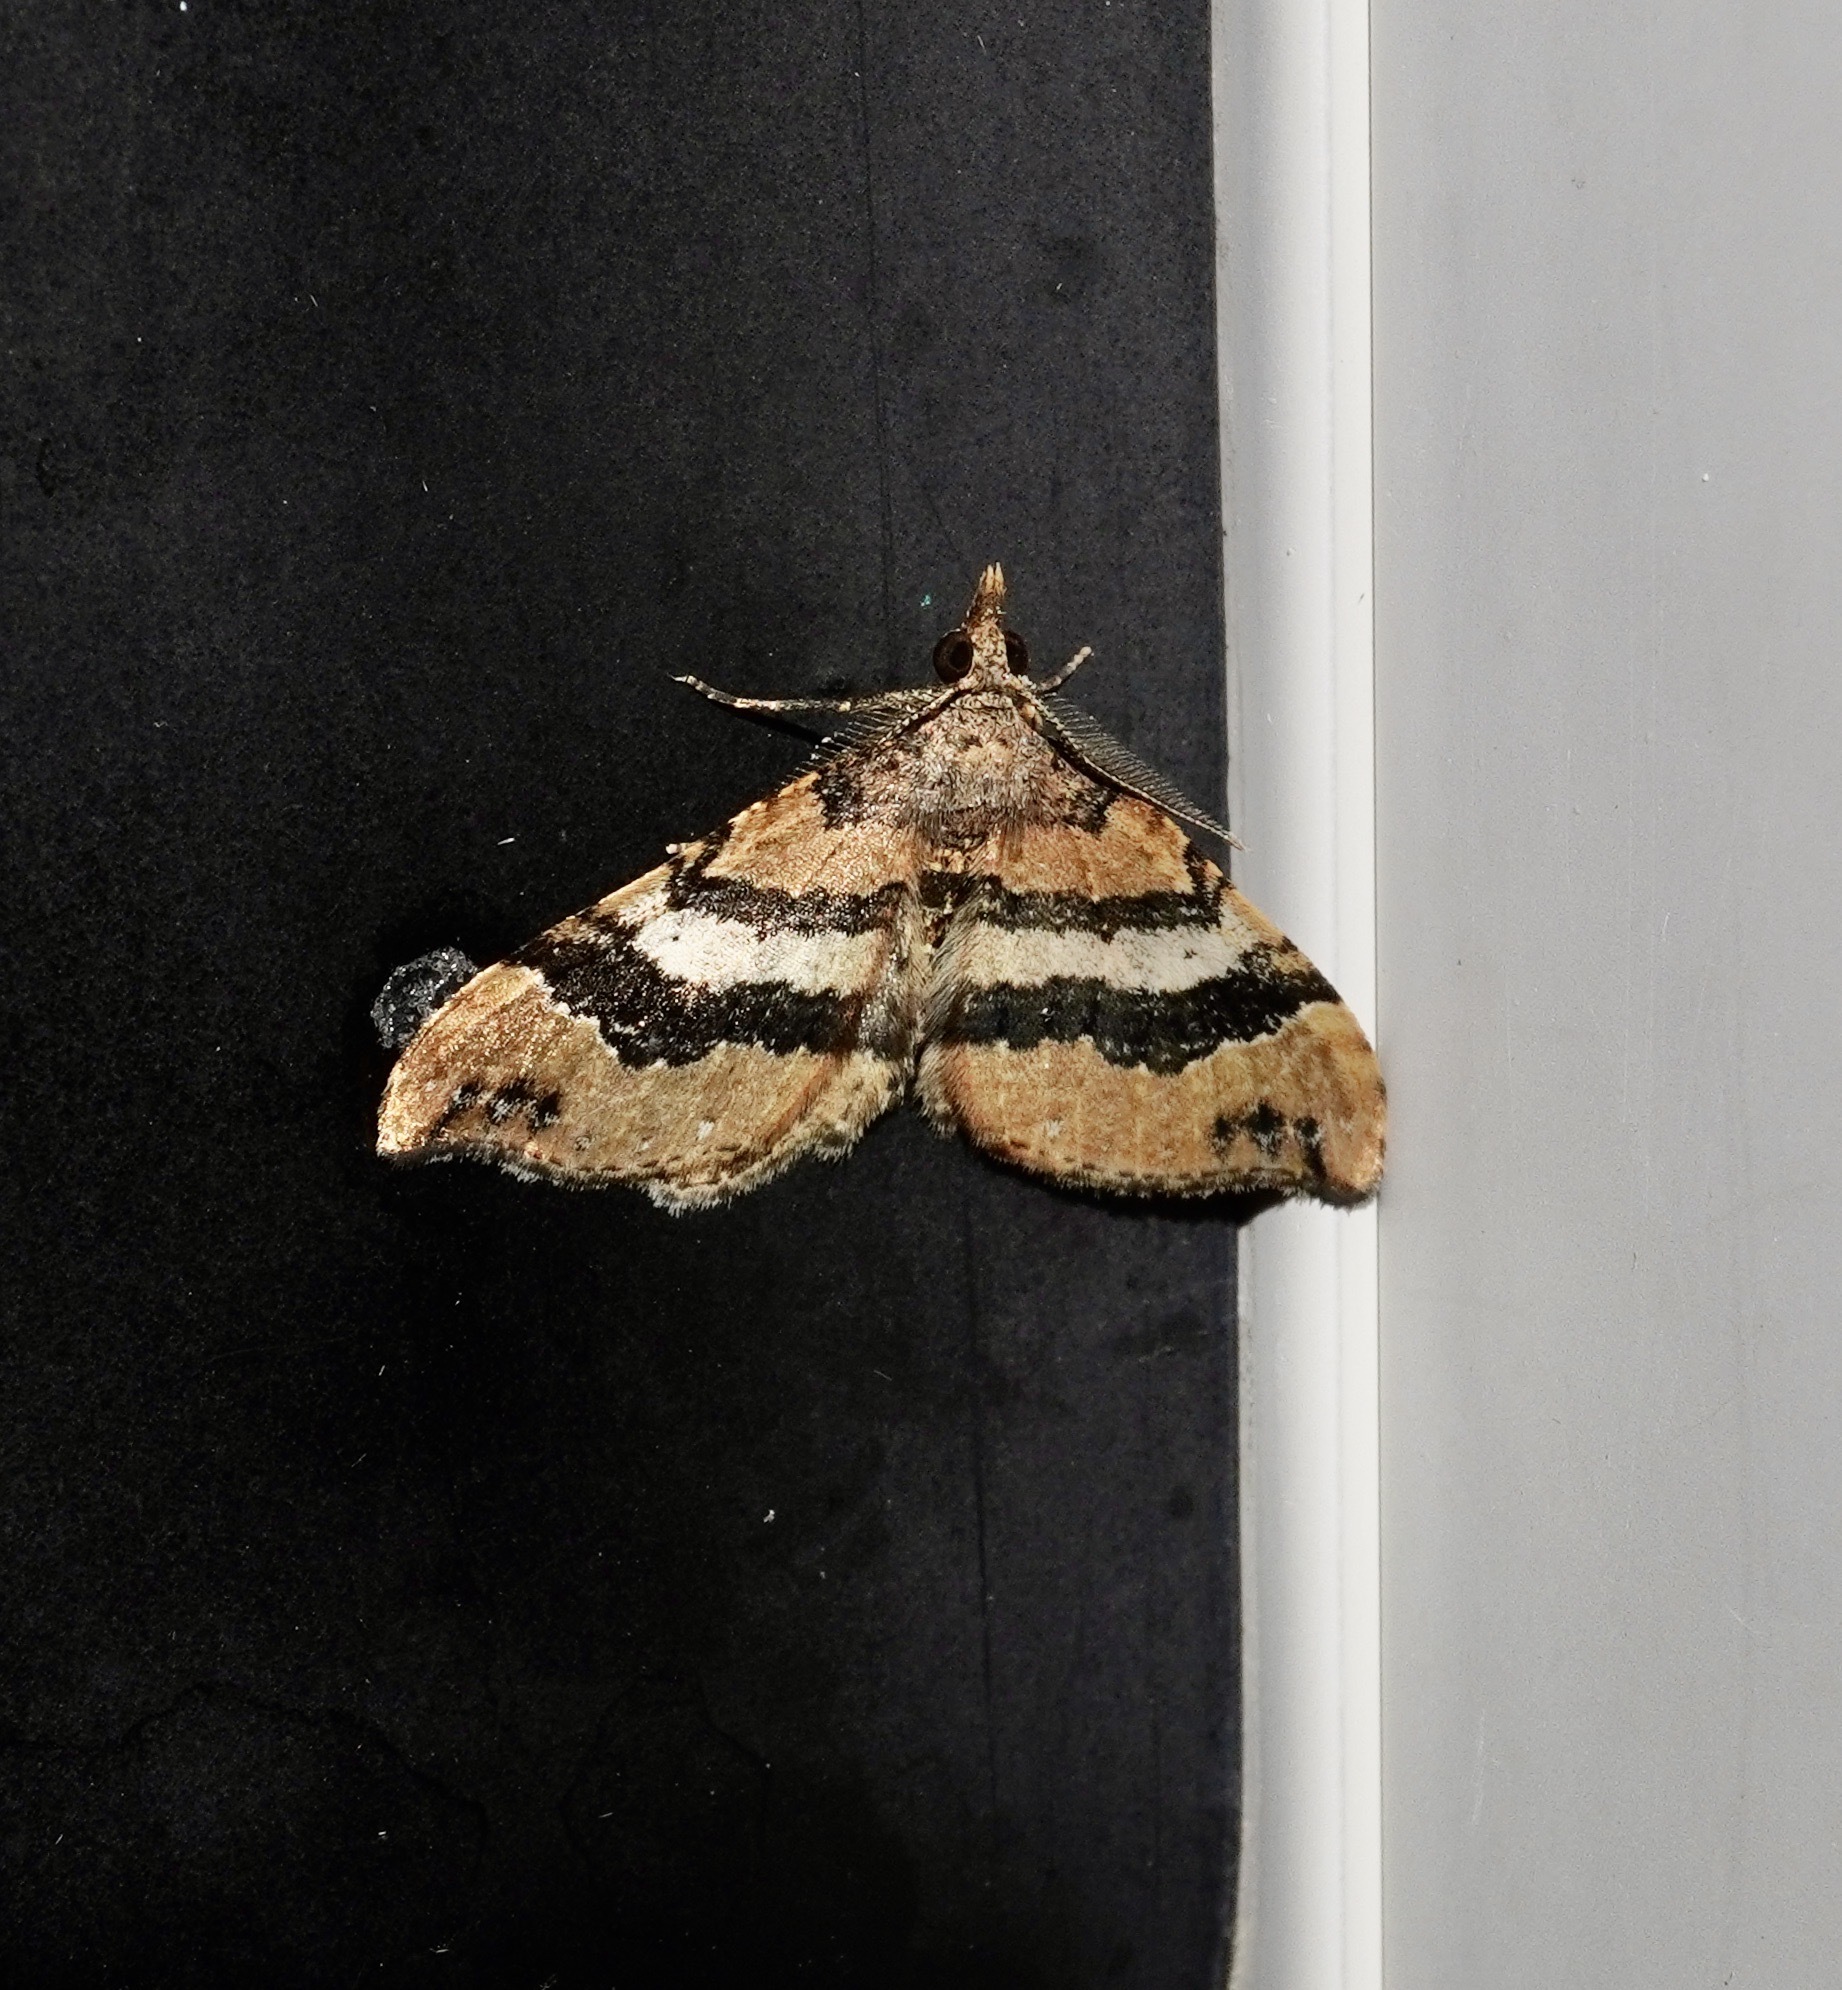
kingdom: Animalia
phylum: Arthropoda
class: Insecta
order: Lepidoptera
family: Geometridae
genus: Homodotis
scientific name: Homodotis megaspilata
